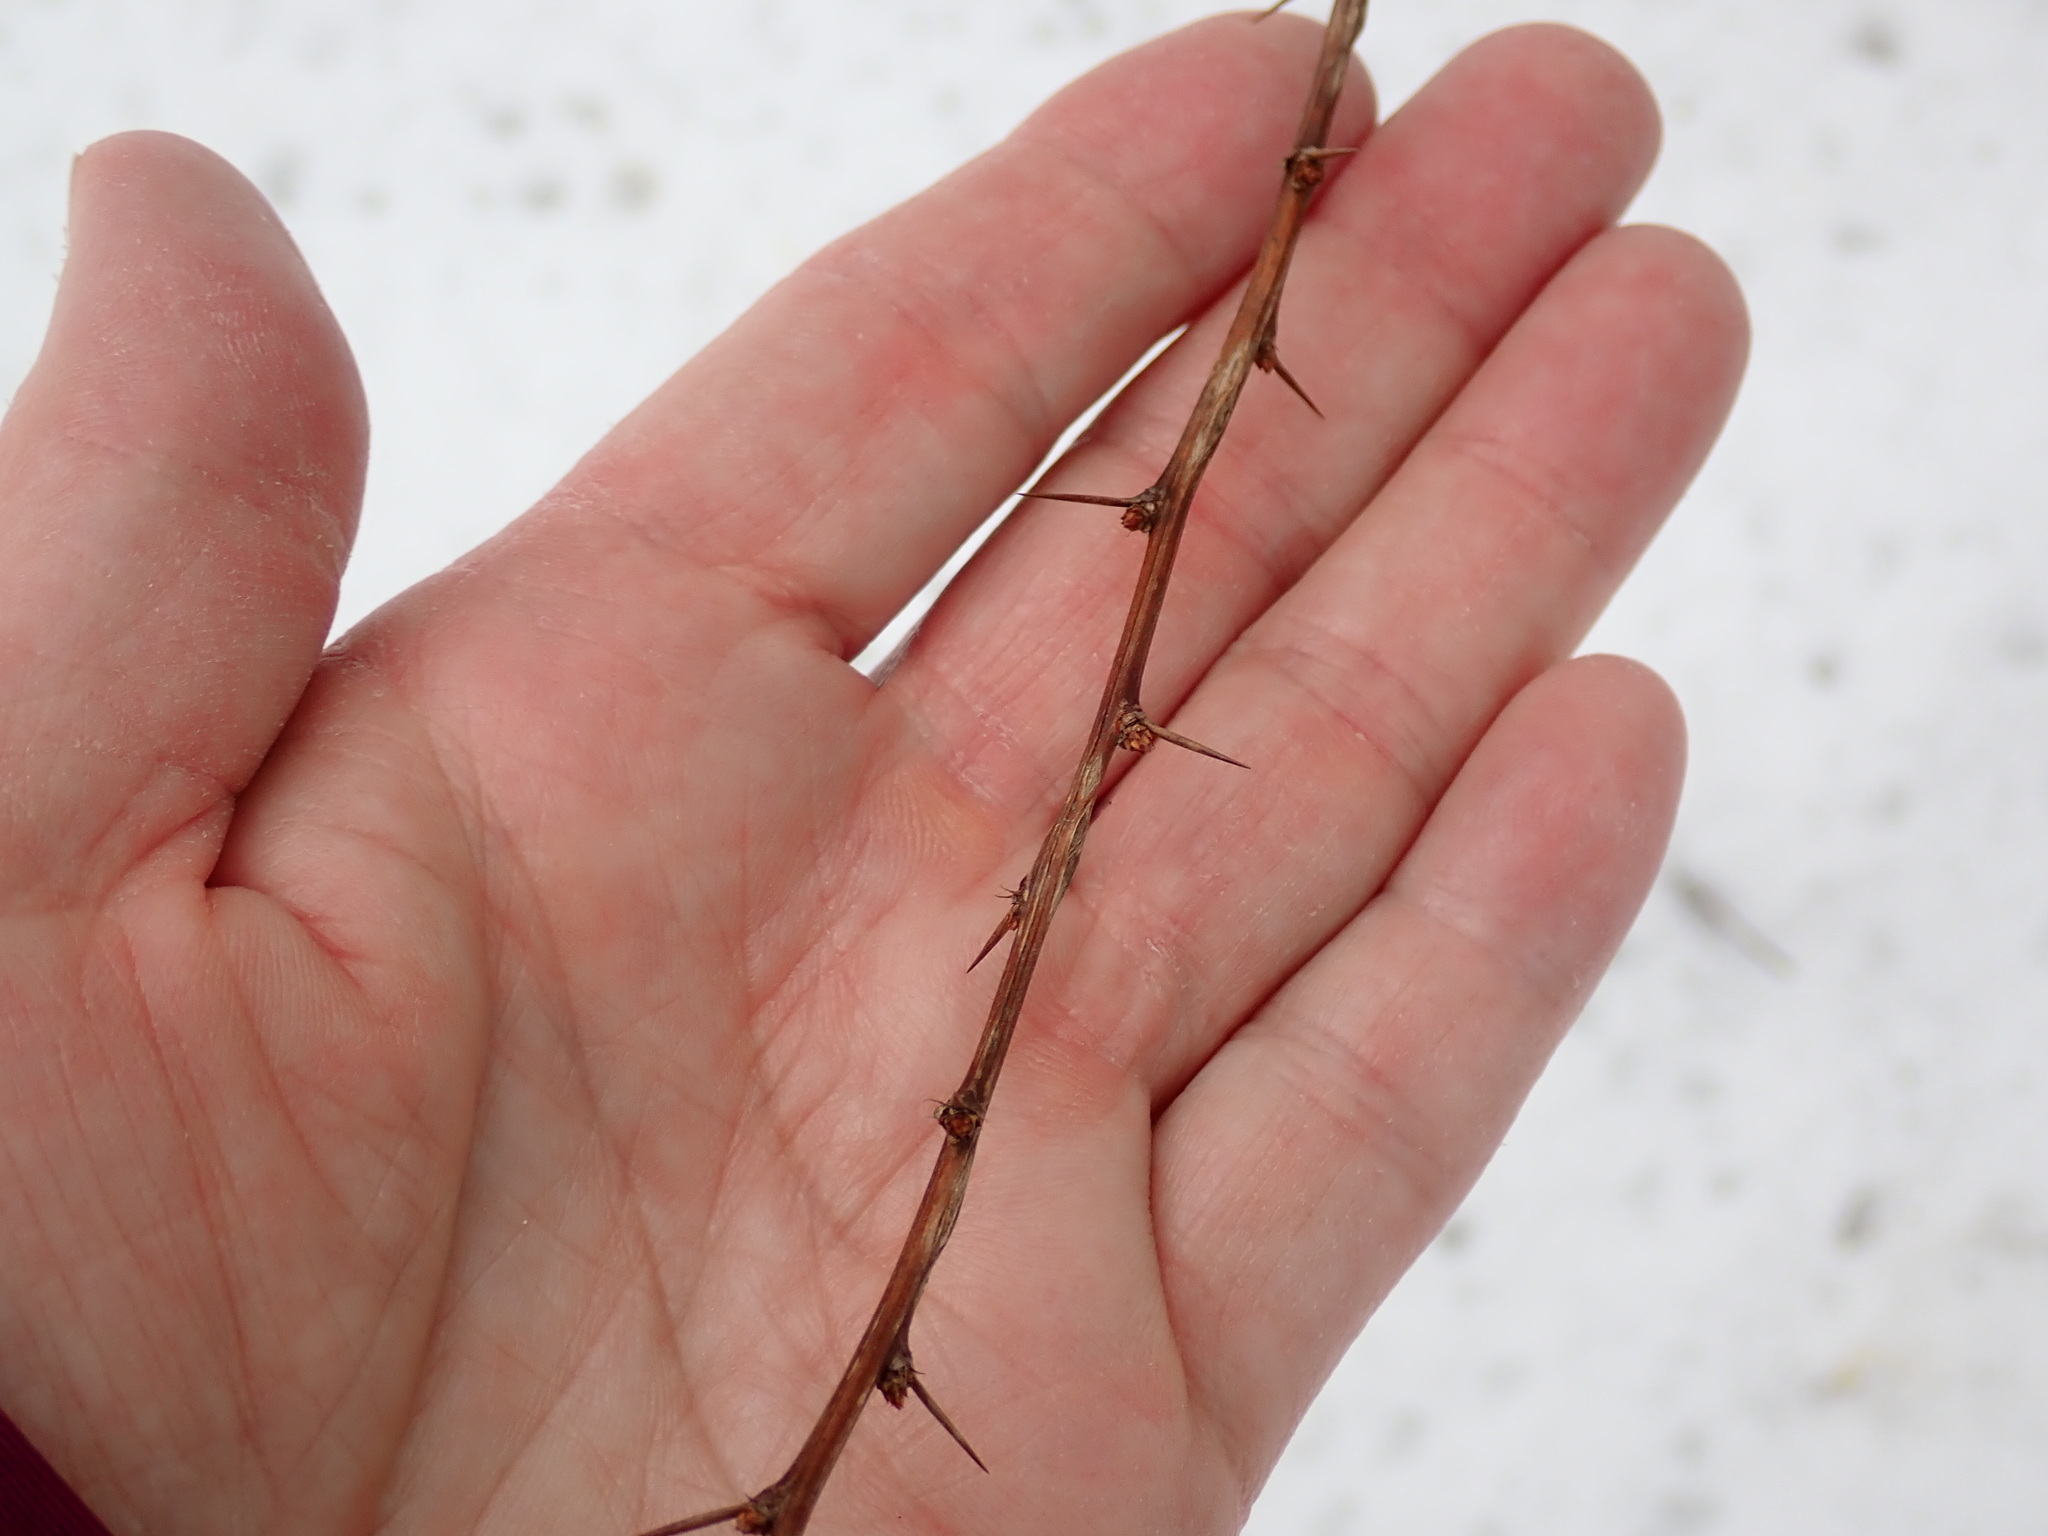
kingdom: Plantae
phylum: Tracheophyta
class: Magnoliopsida
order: Ranunculales
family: Berberidaceae
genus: Berberis
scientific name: Berberis thunbergii
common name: Japanese barberry
